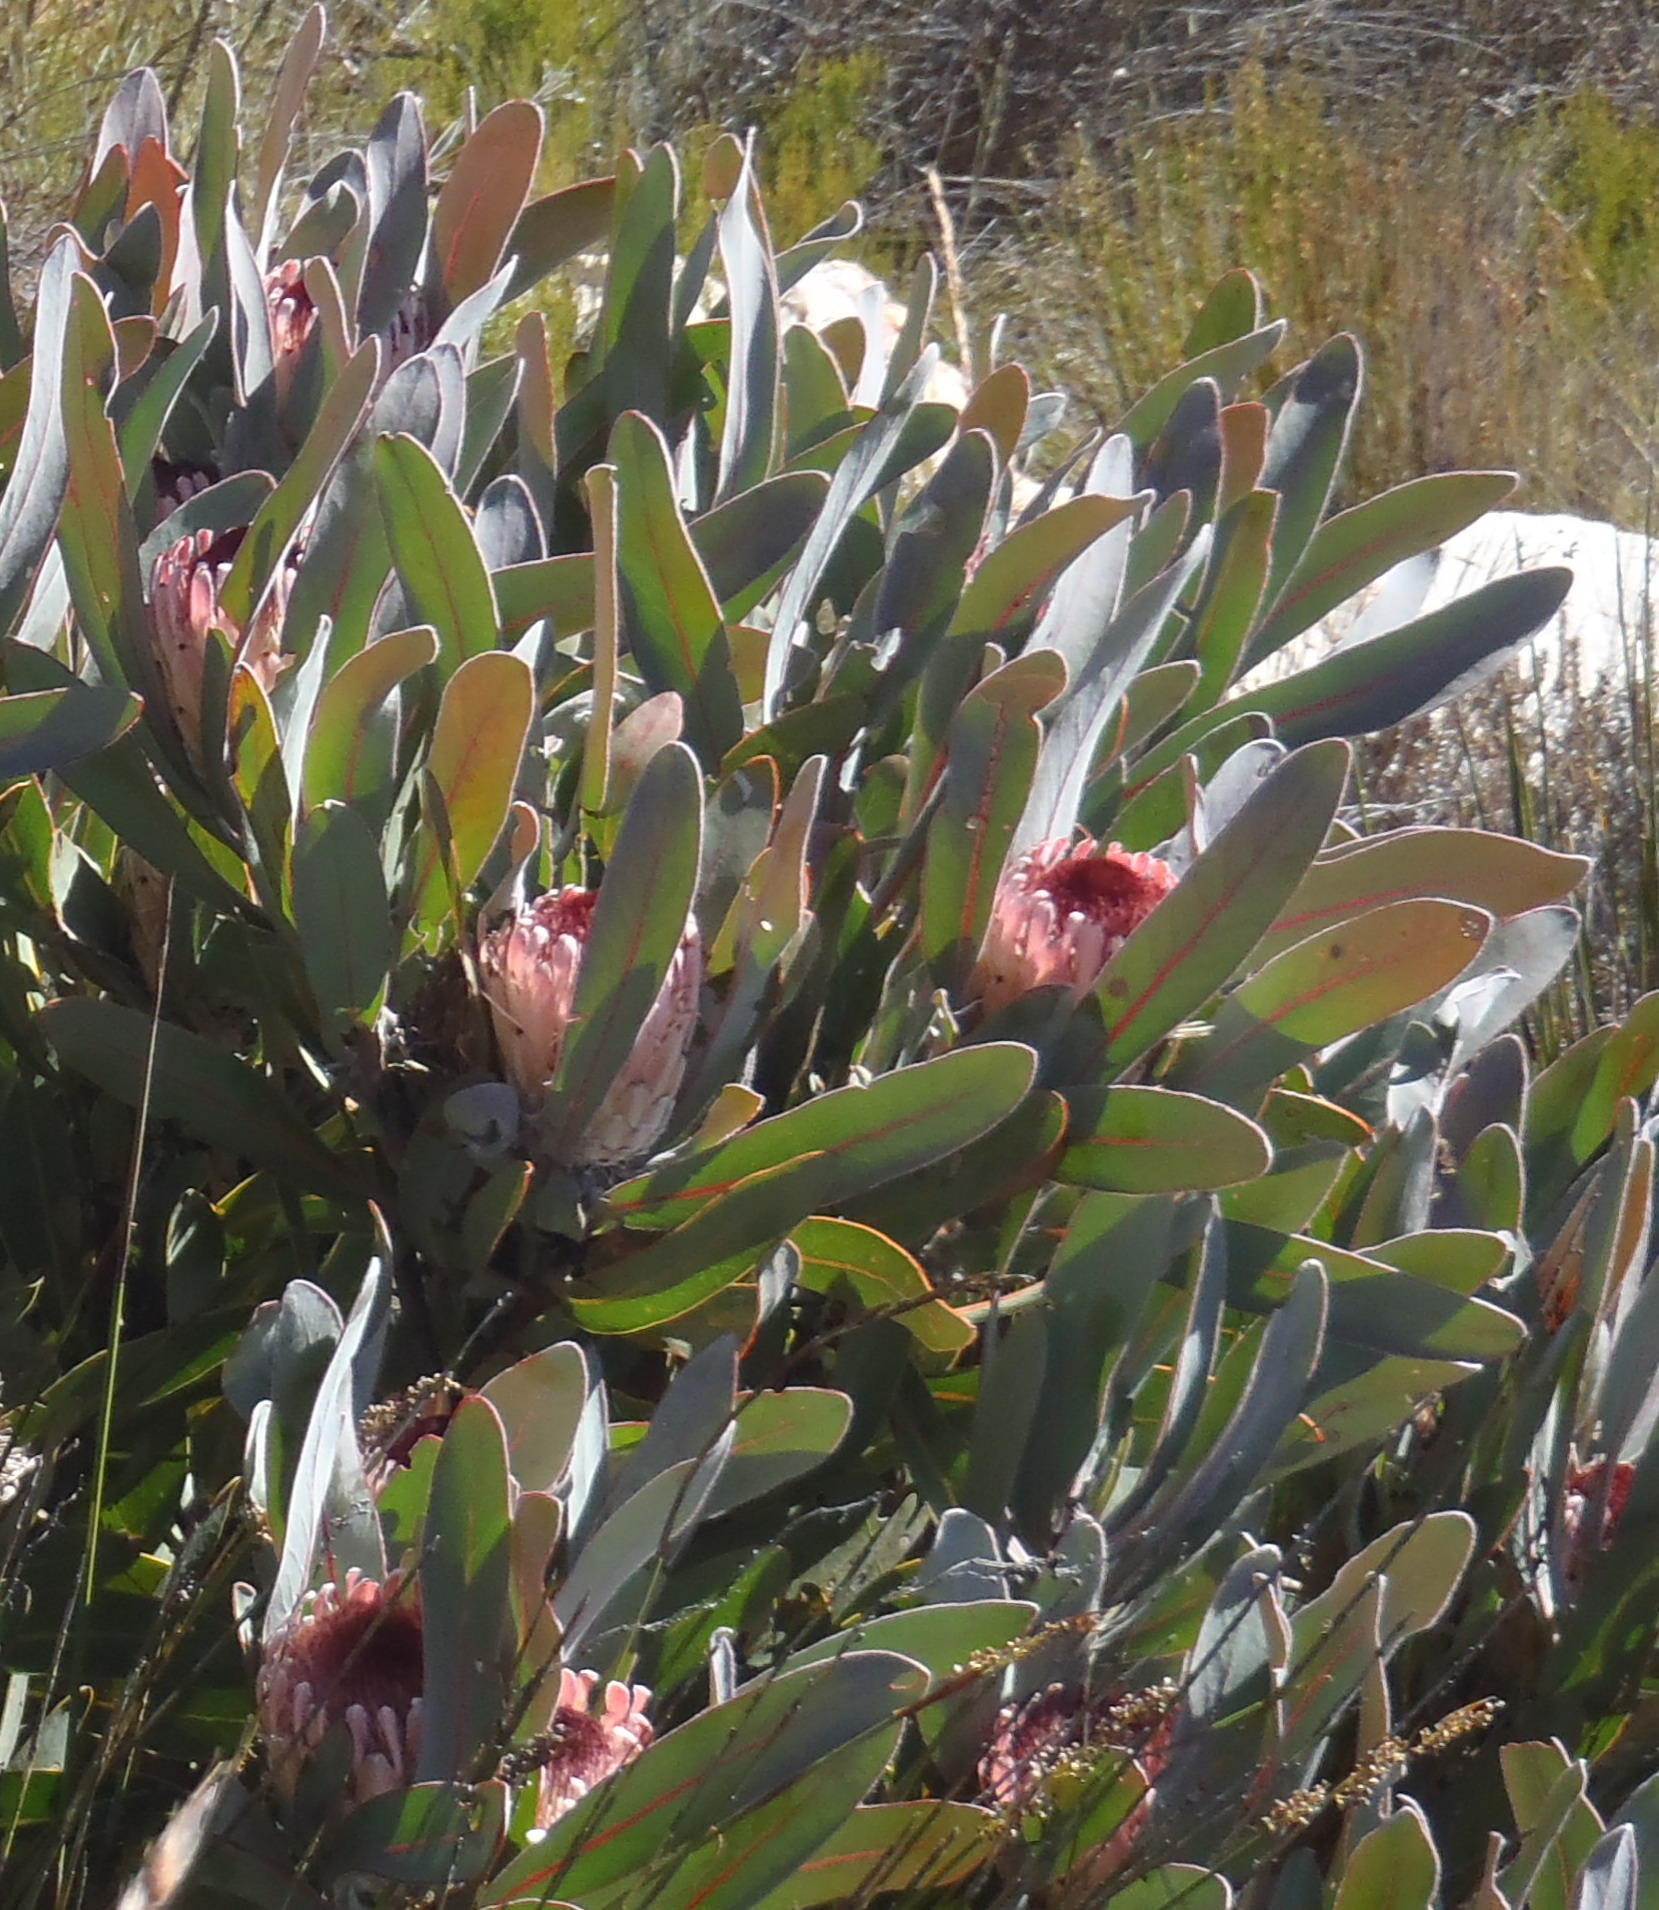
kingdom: Plantae
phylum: Tracheophyta
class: Magnoliopsida
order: Proteales
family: Proteaceae
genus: Protea
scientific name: Protea lorifolia
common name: Strap-leaved protea
